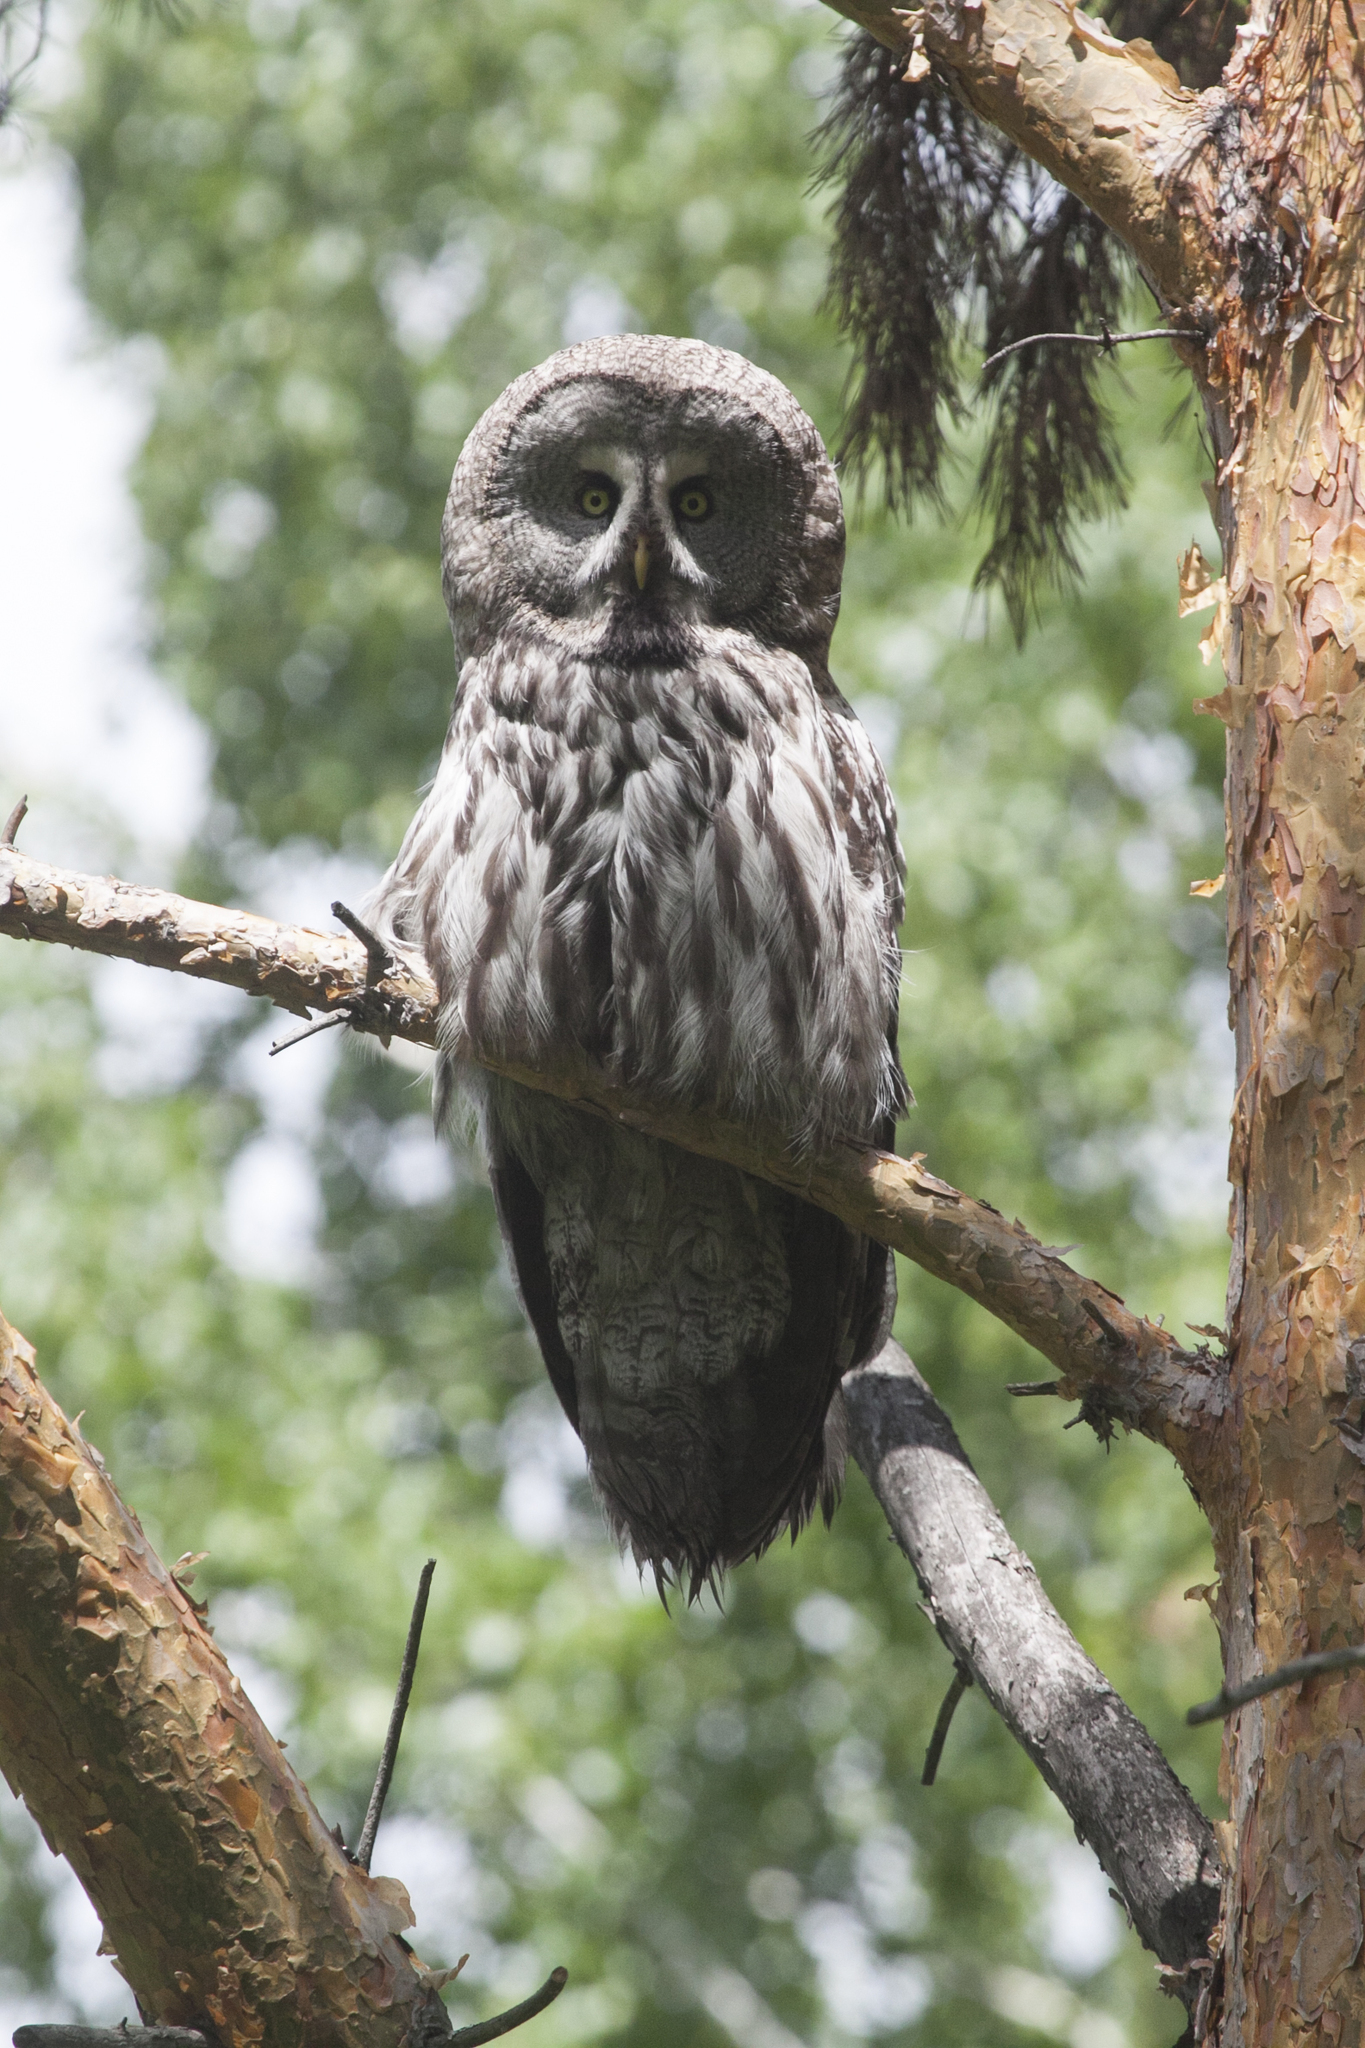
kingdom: Animalia
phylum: Chordata
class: Aves
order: Strigiformes
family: Strigidae
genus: Strix
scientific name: Strix nebulosa
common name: Great grey owl
